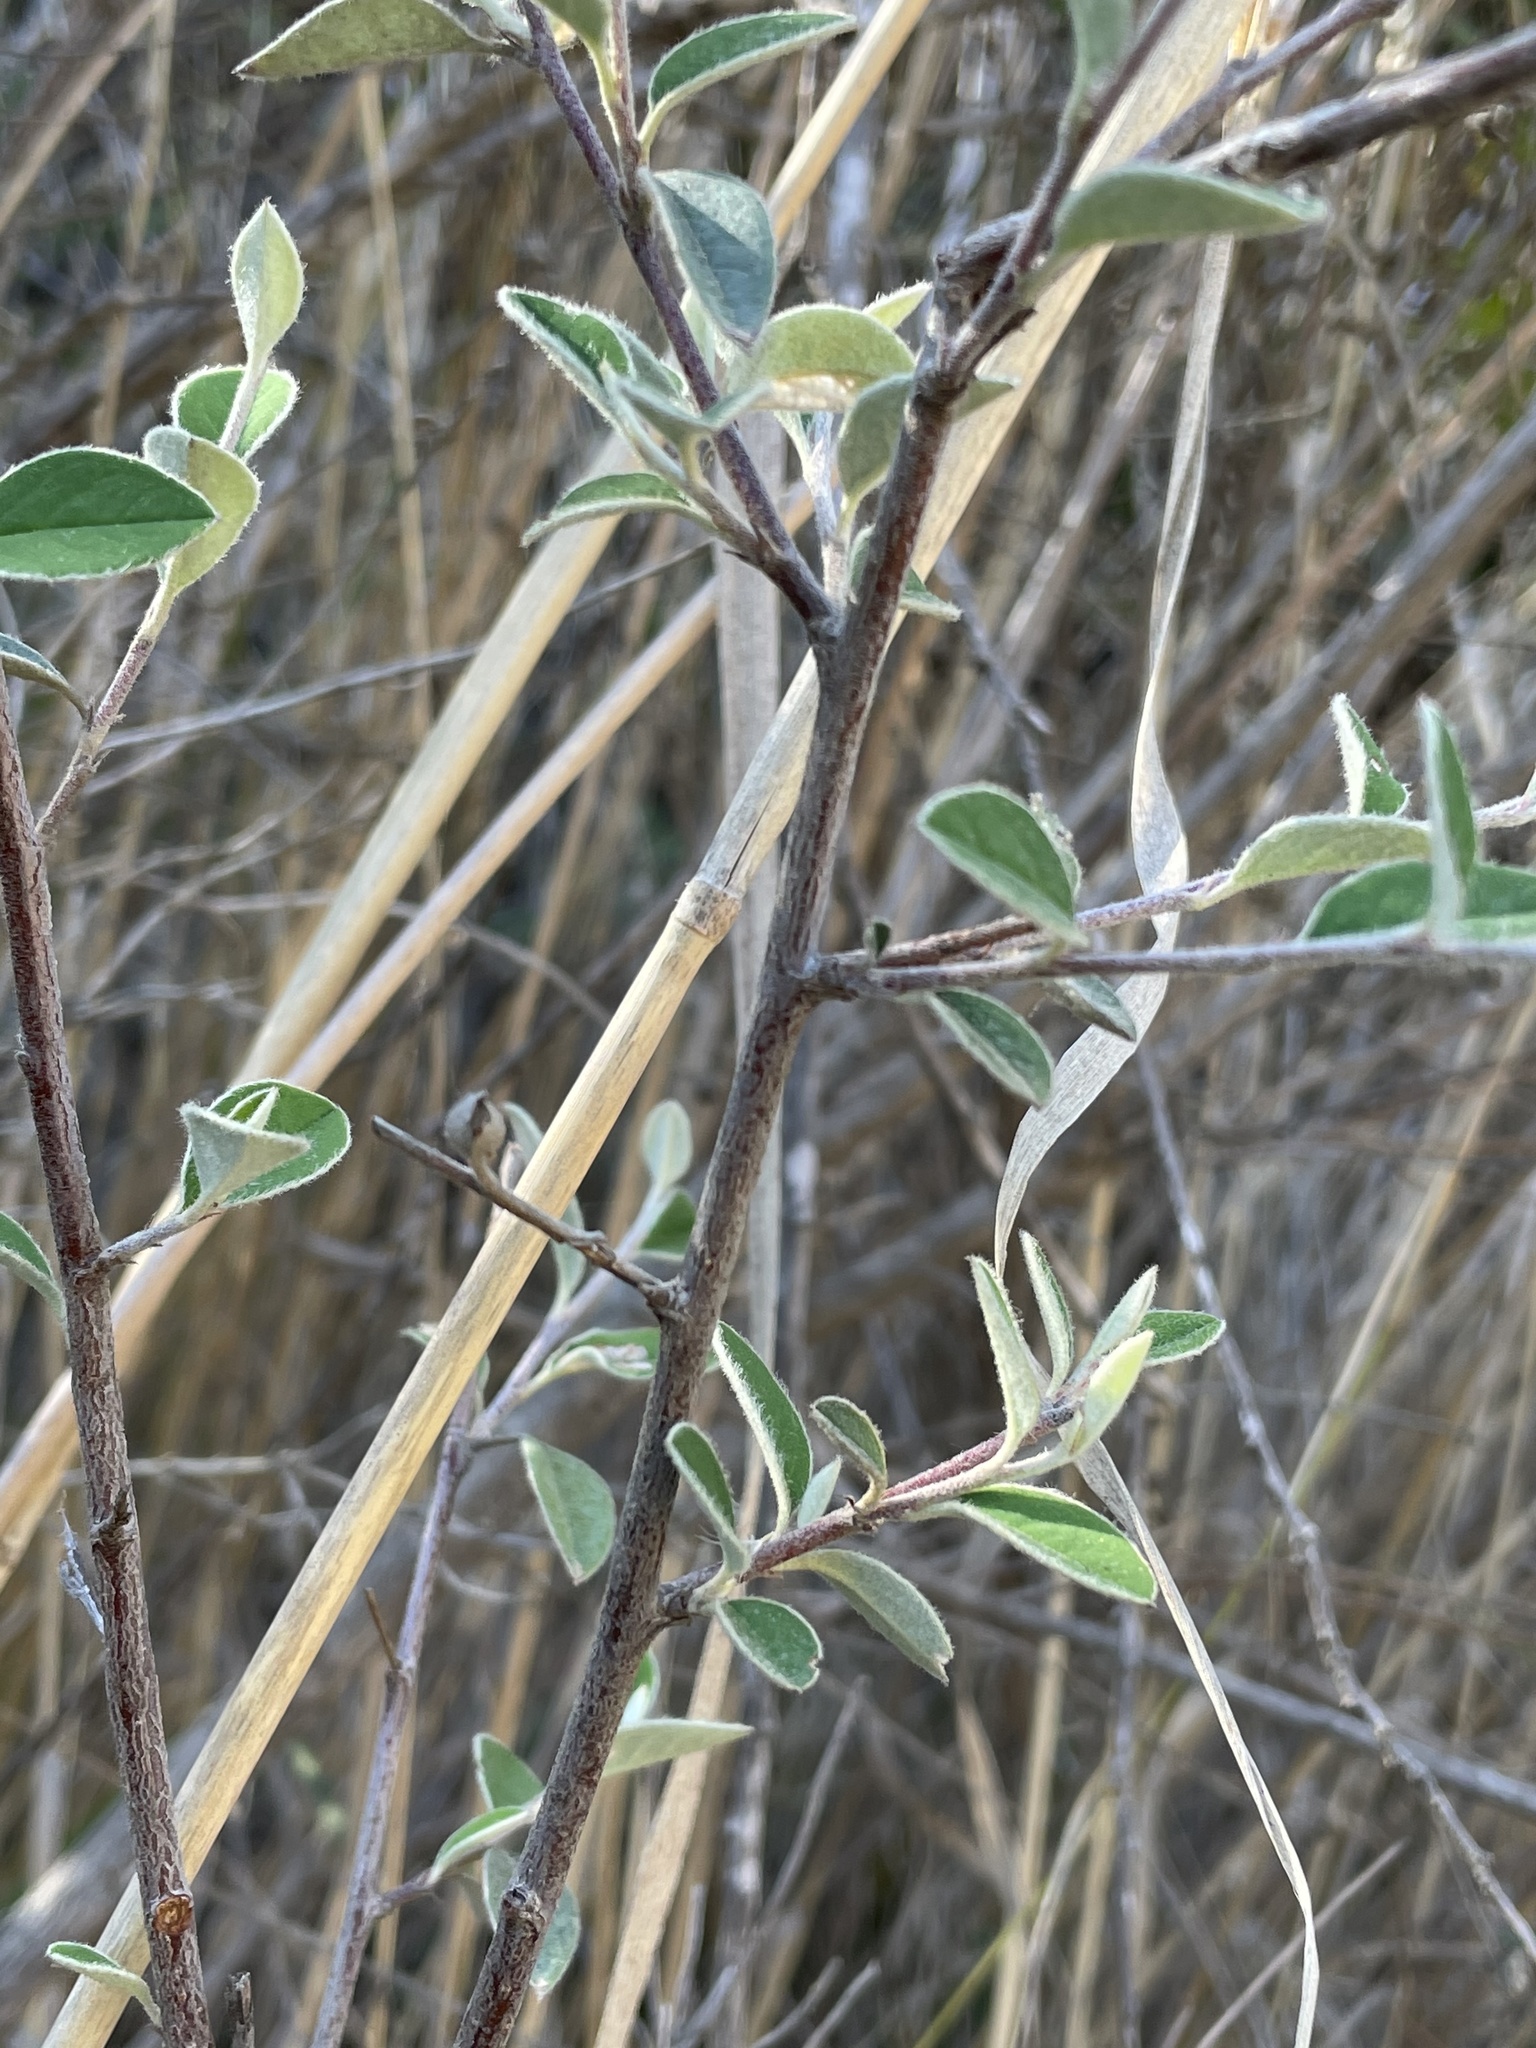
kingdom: Plantae
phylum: Tracheophyta
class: Magnoliopsida
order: Rosales
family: Rosaceae
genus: Cotoneaster
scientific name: Cotoneaster pannosus
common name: Silverleaf cotoneaster
